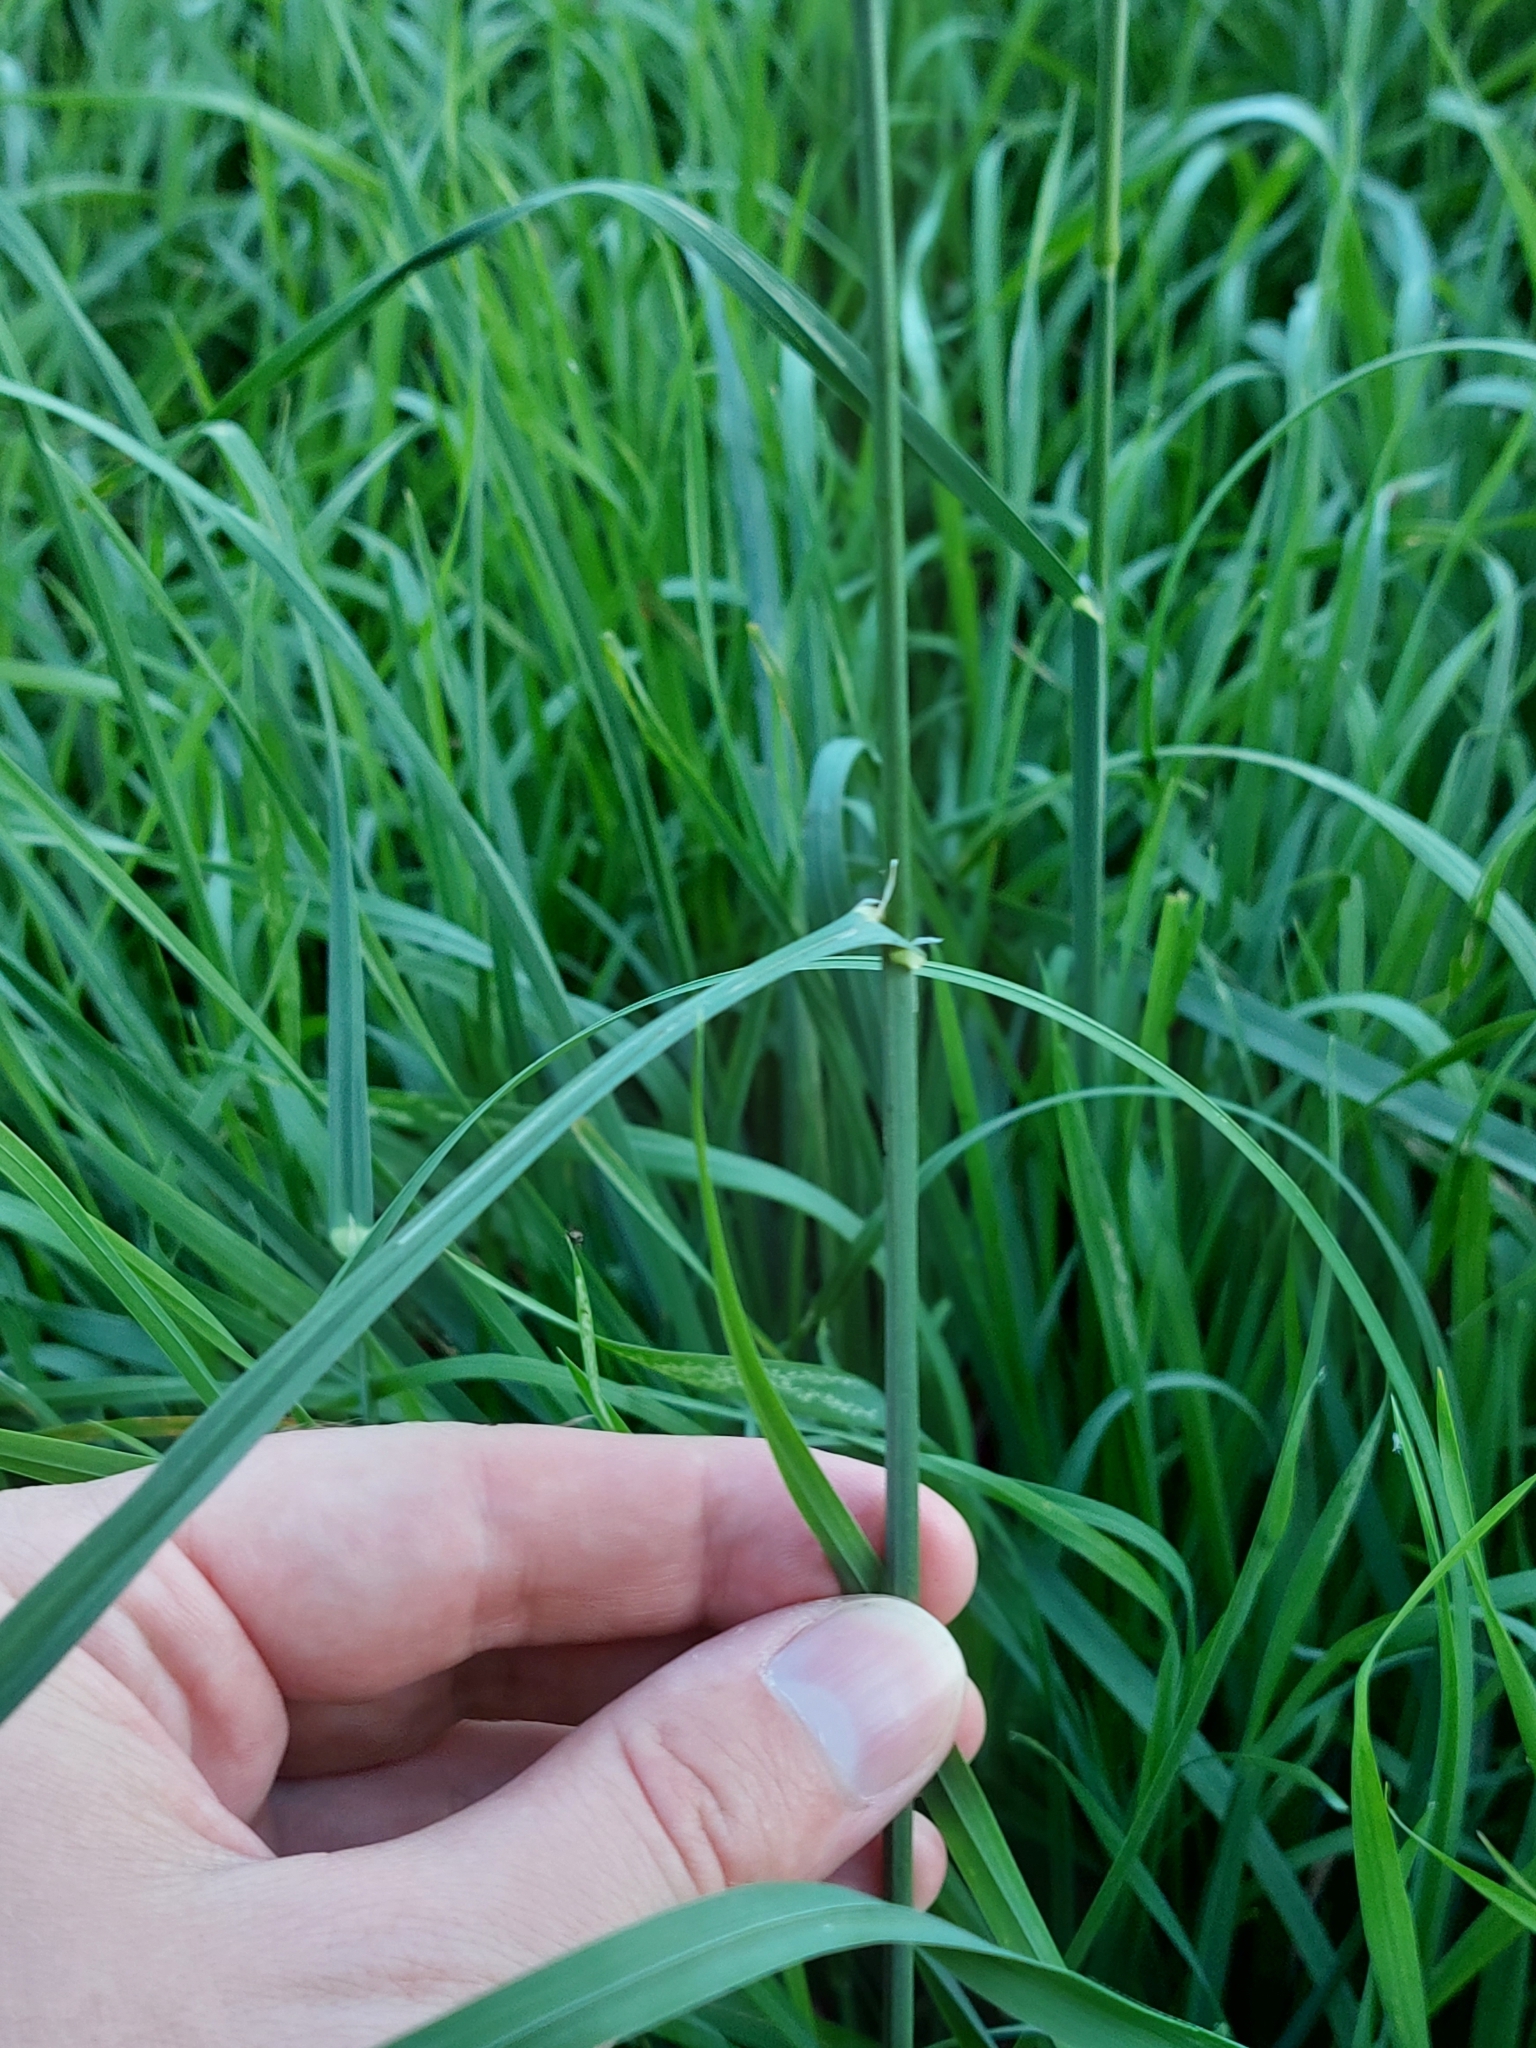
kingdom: Plantae
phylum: Tracheophyta
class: Liliopsida
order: Poales
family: Poaceae
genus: Dactylis
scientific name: Dactylis glomerata
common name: Orchardgrass
